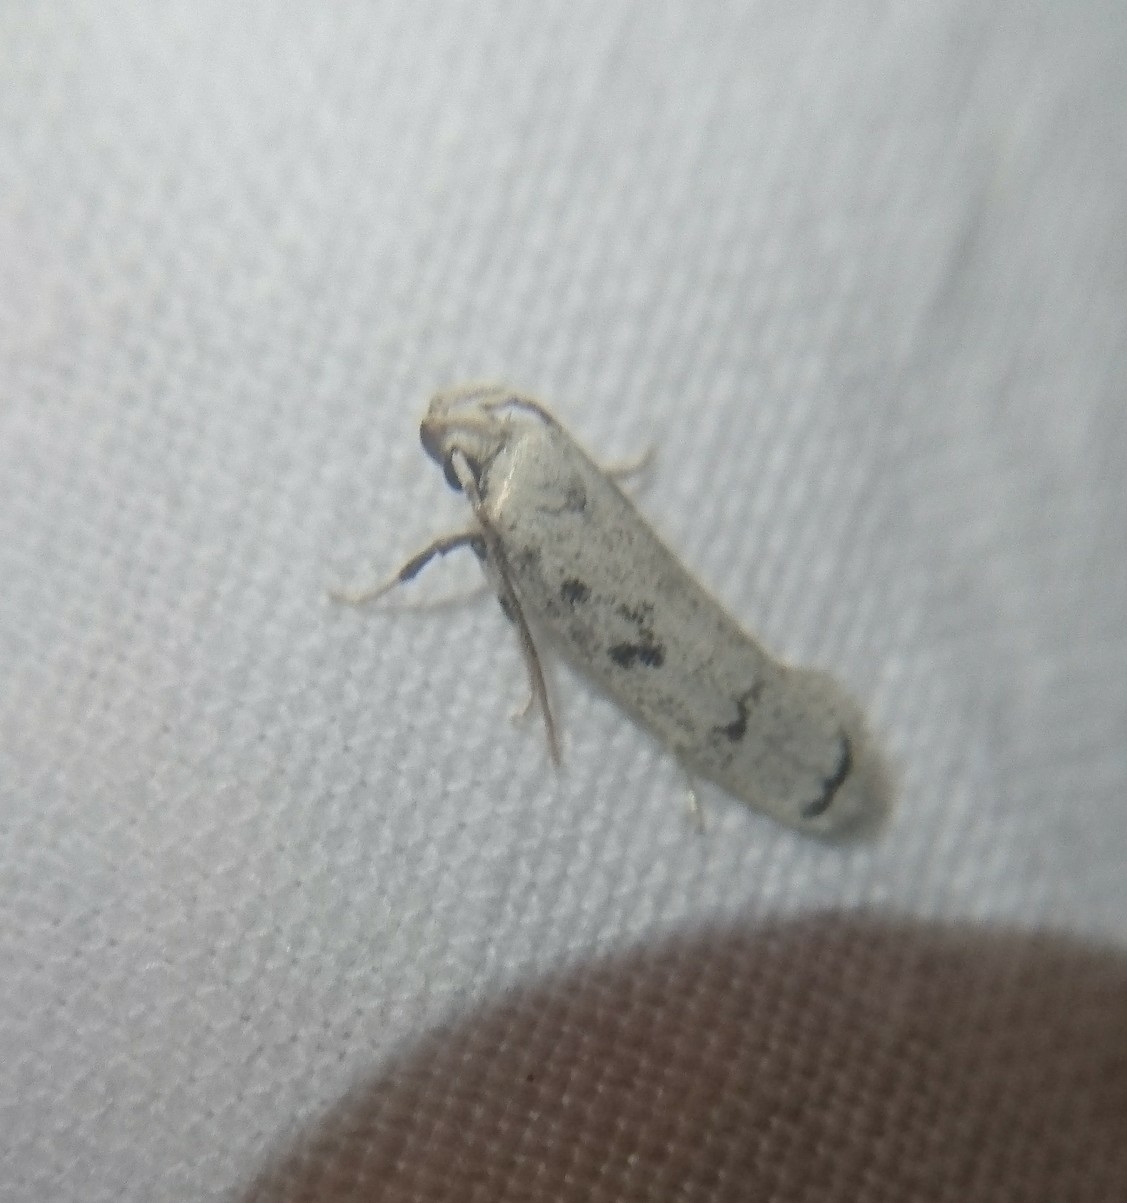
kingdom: Animalia
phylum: Arthropoda
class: Insecta
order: Lepidoptera
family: Autostichidae
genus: Glyphidocera
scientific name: Glyphidocera lactiflosella
